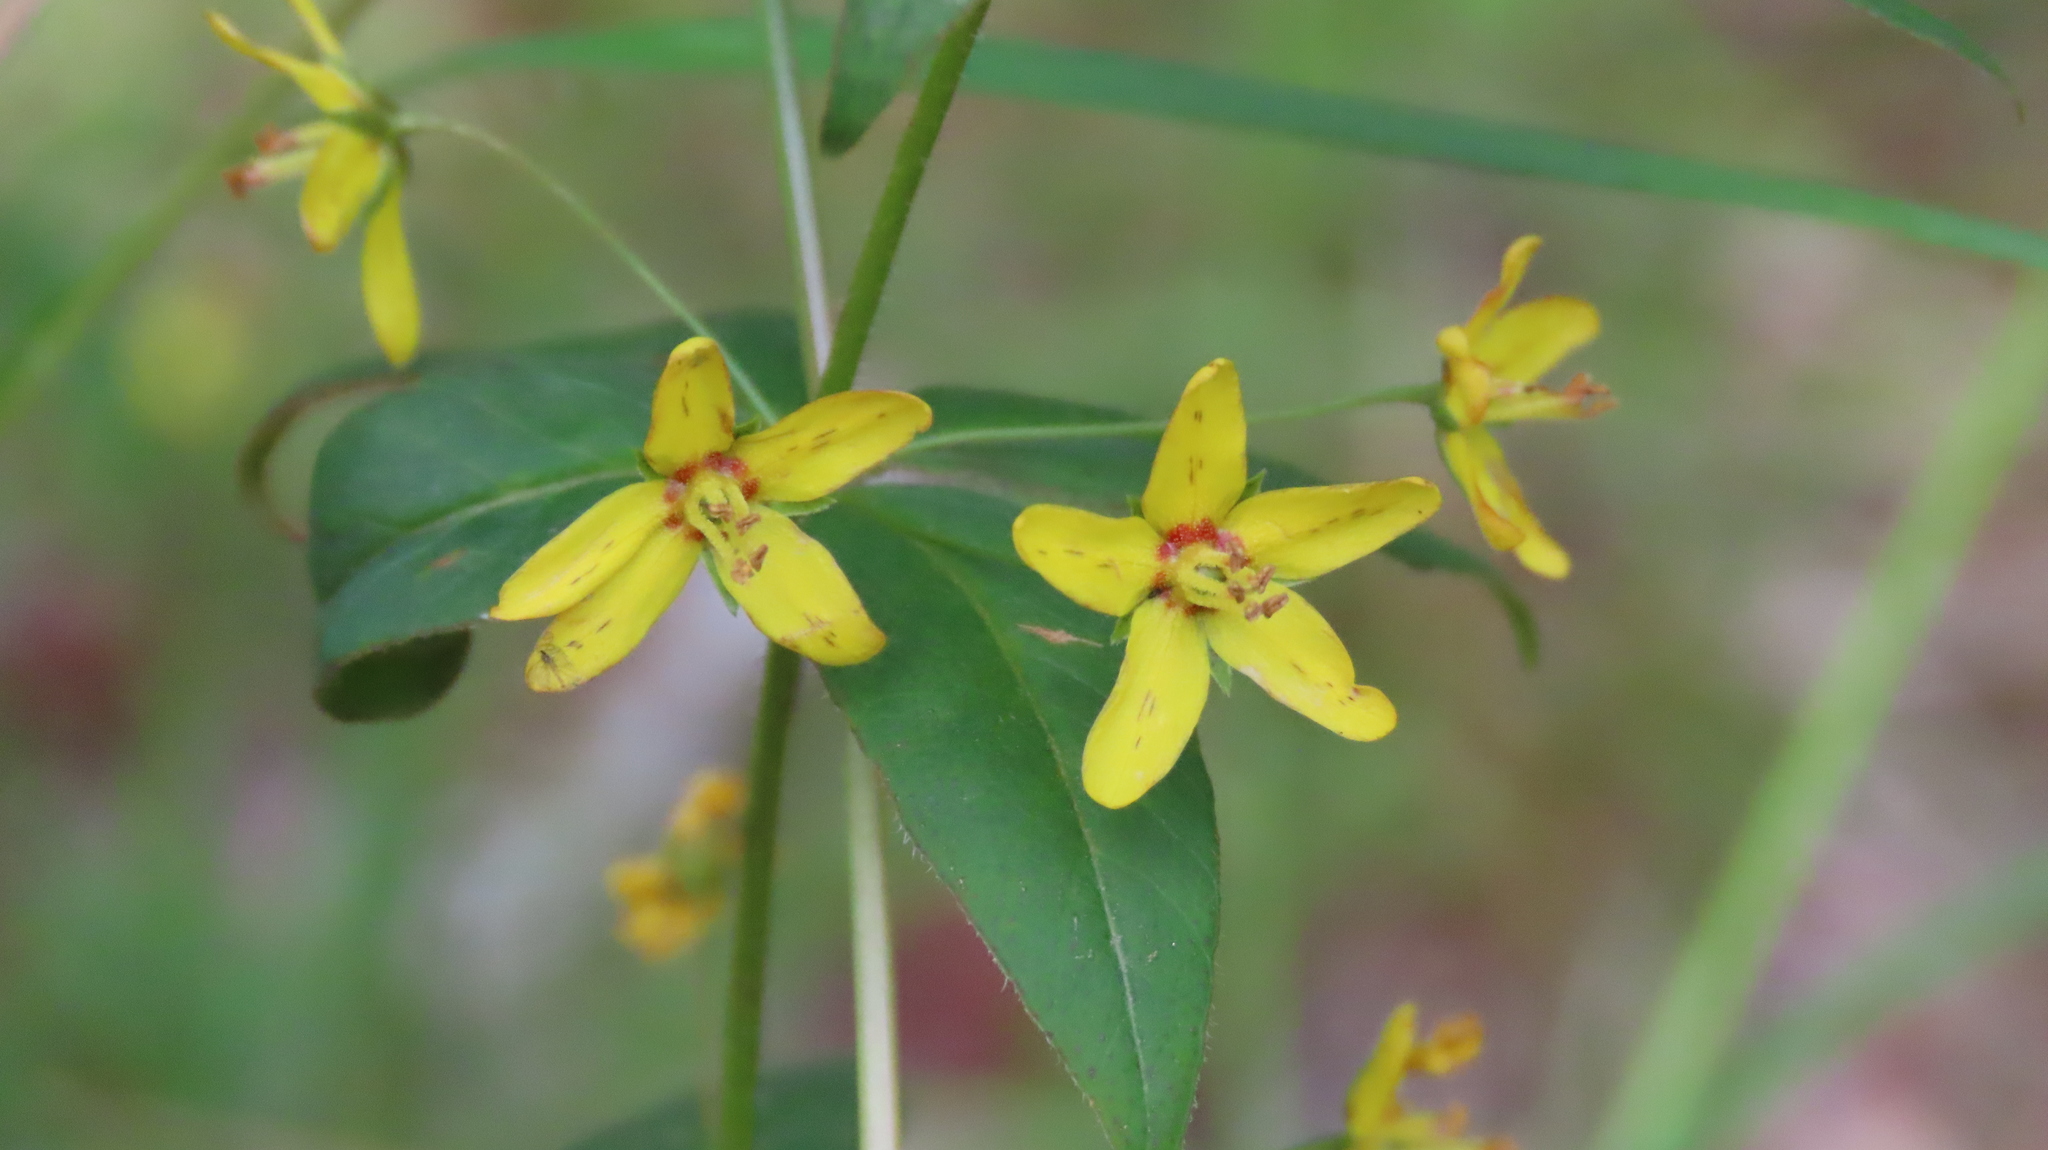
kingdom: Plantae
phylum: Tracheophyta
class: Magnoliopsida
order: Ericales
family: Primulaceae
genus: Lysimachia
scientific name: Lysimachia quadrifolia
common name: Whorled loosestrife
